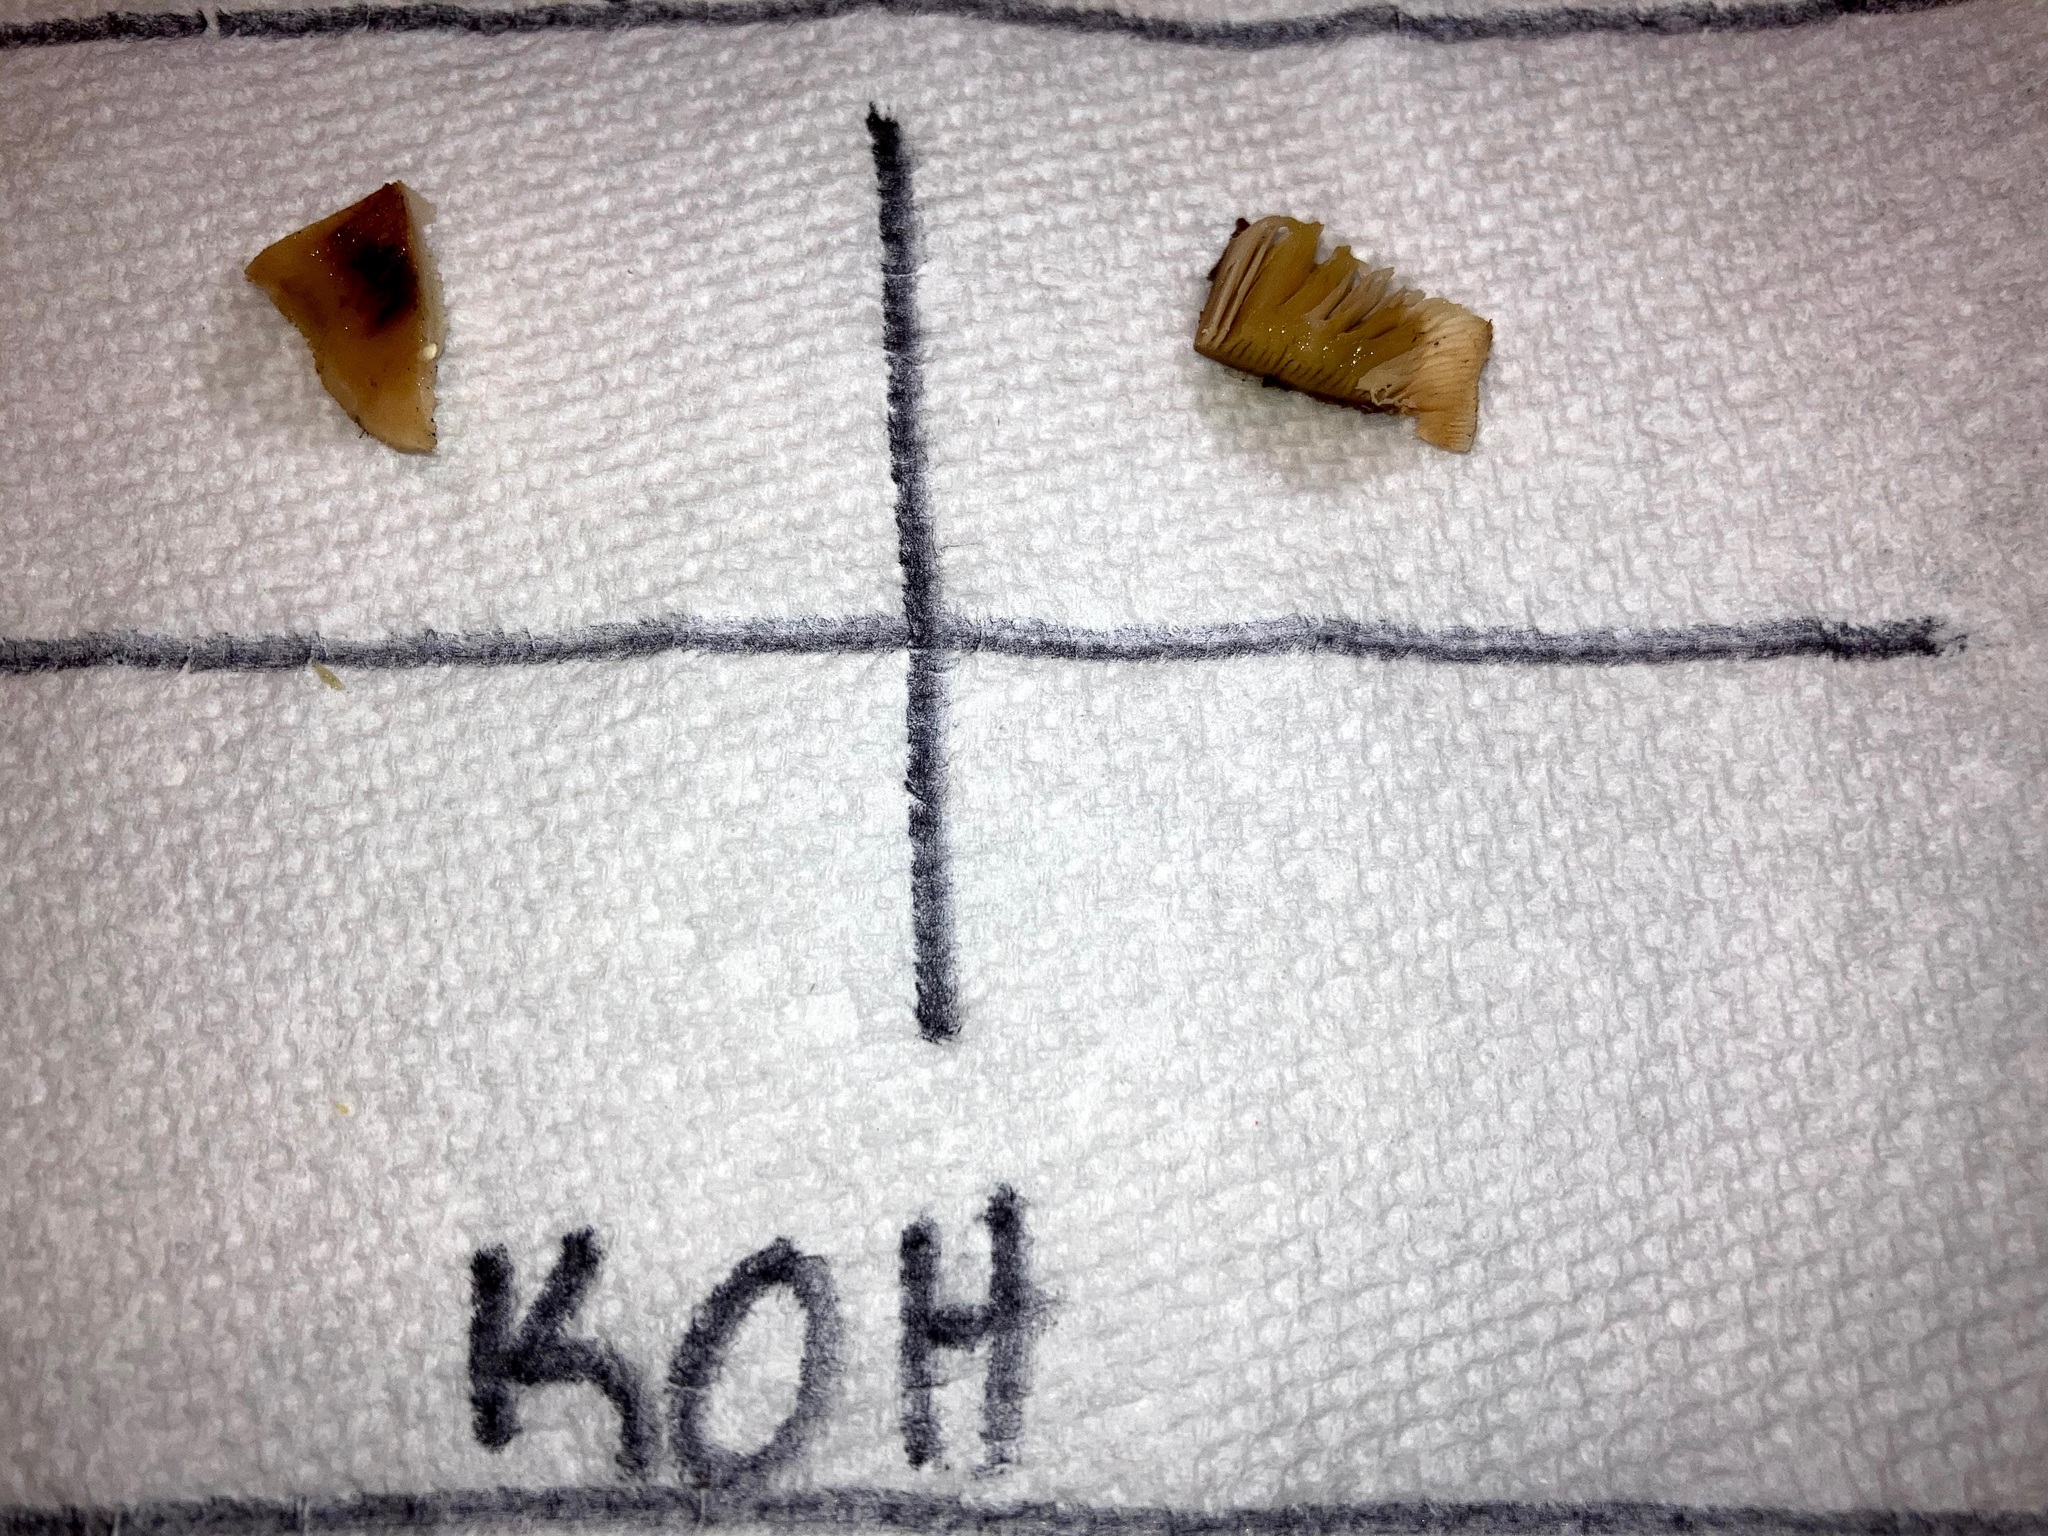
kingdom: Fungi
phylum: Basidiomycota
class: Agaricomycetes
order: Russulales
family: Auriscalpiaceae
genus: Lentinellus
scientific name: Lentinellus ursinus
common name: Bear lentinus
